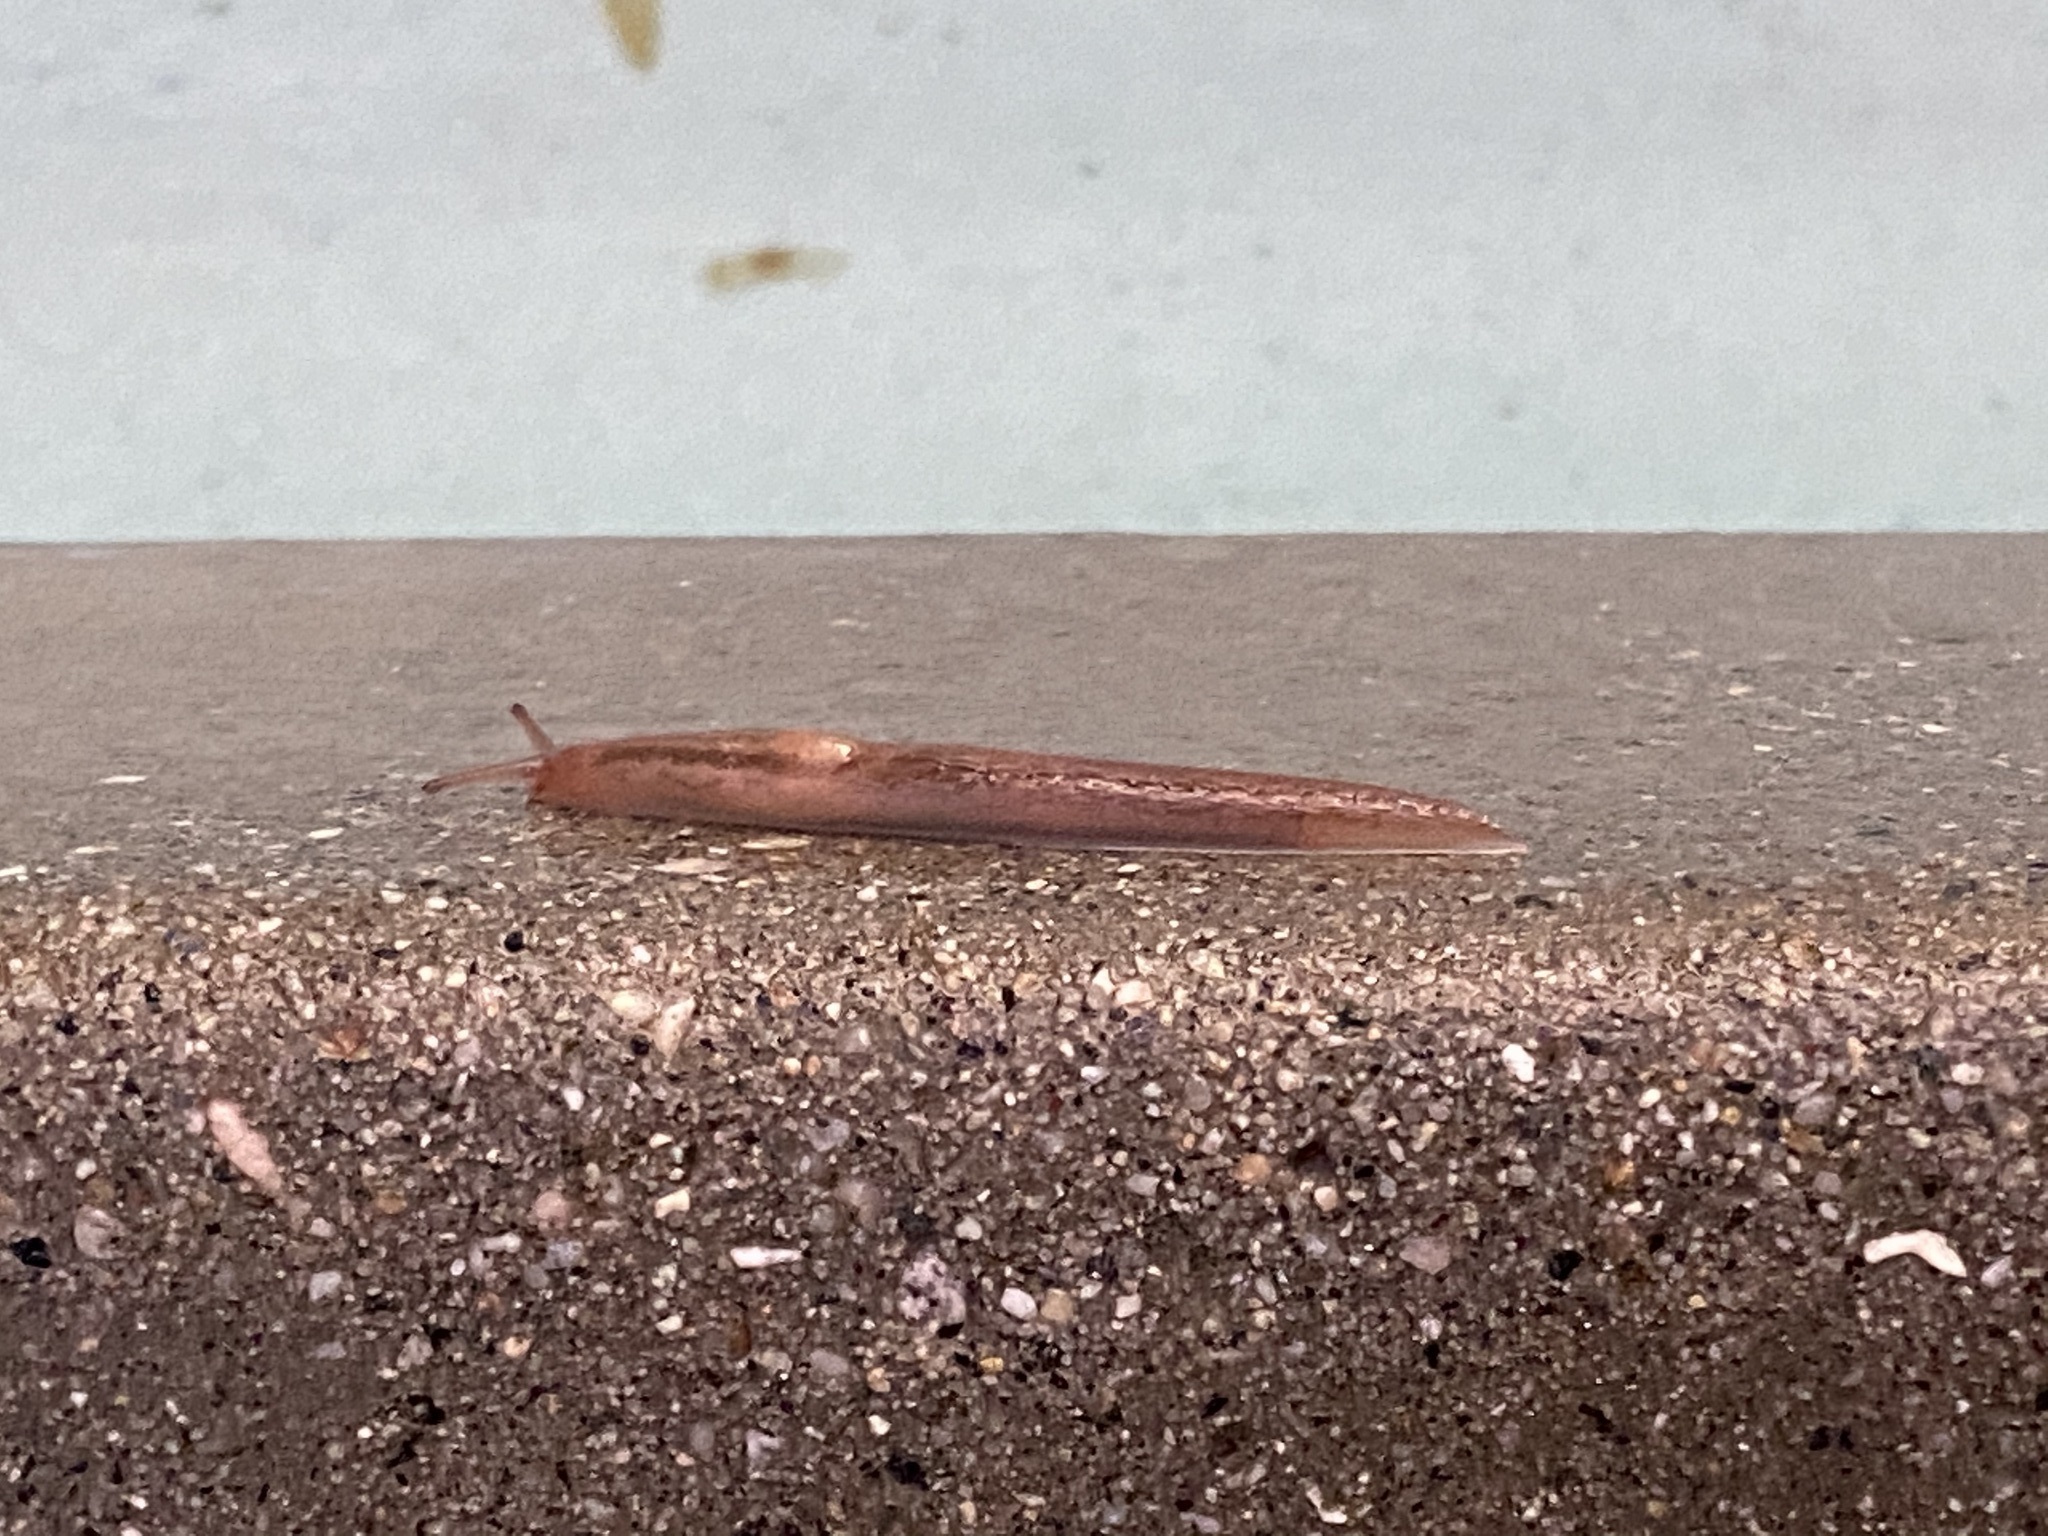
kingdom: Animalia
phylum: Mollusca
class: Gastropoda
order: Stylommatophora
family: Limacidae
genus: Ambigolimax
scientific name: Ambigolimax
